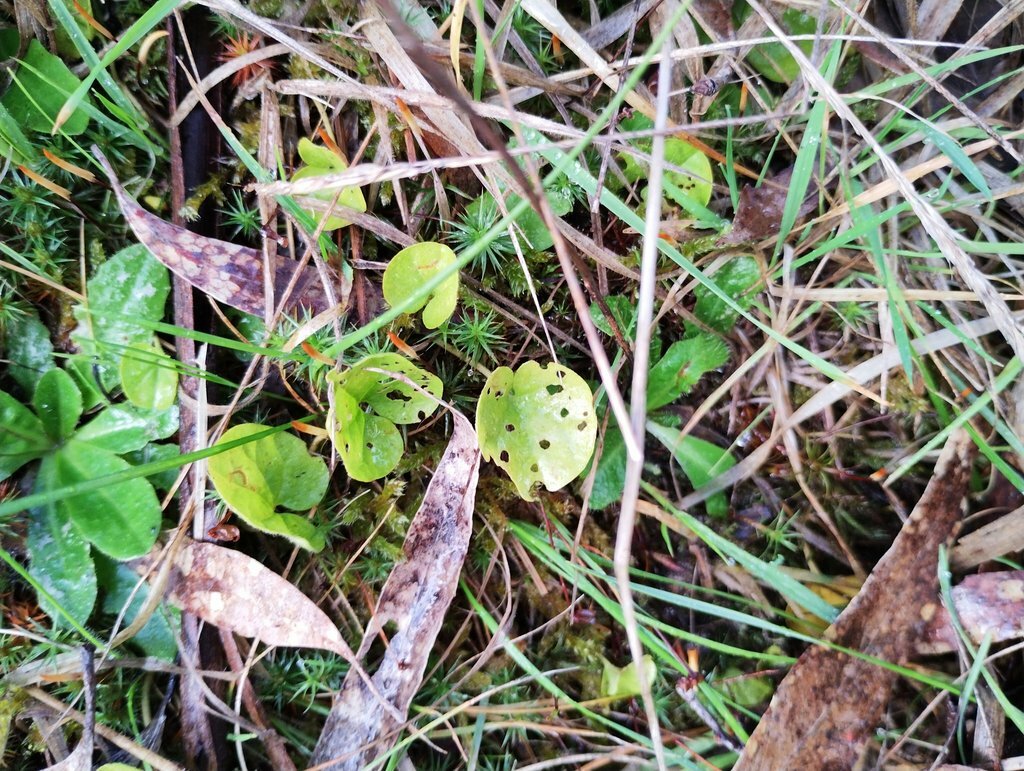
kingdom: Plantae
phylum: Tracheophyta
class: Magnoliopsida
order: Solanales
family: Convolvulaceae
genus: Dichondra
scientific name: Dichondra repens
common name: Kidneyweed
